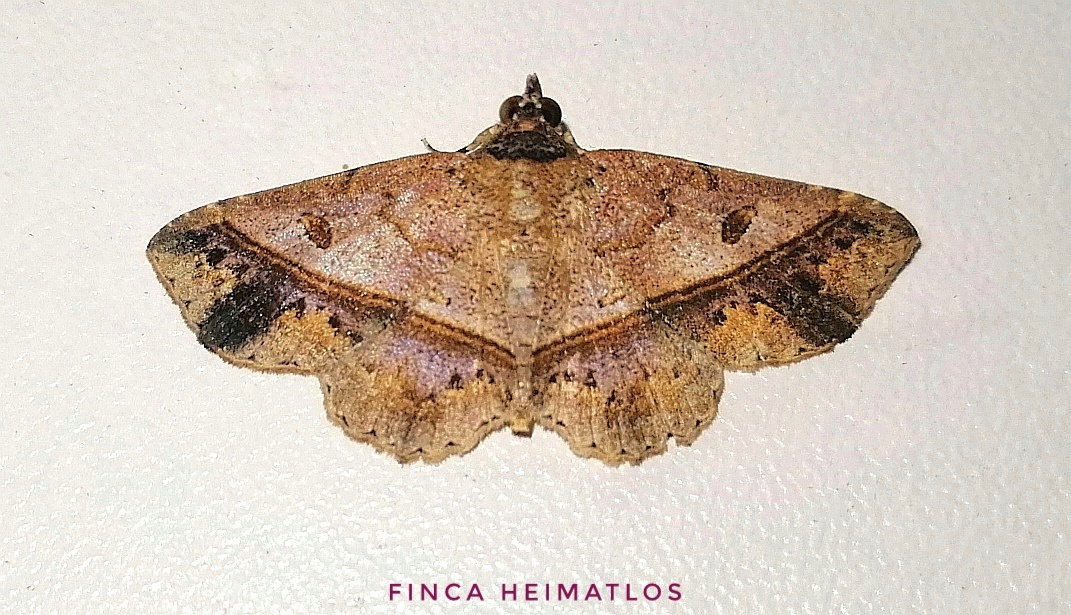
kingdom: Animalia
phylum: Arthropoda
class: Insecta
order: Lepidoptera
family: Erebidae
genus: Antiblemma
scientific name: Antiblemma acclinalis
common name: Moth
